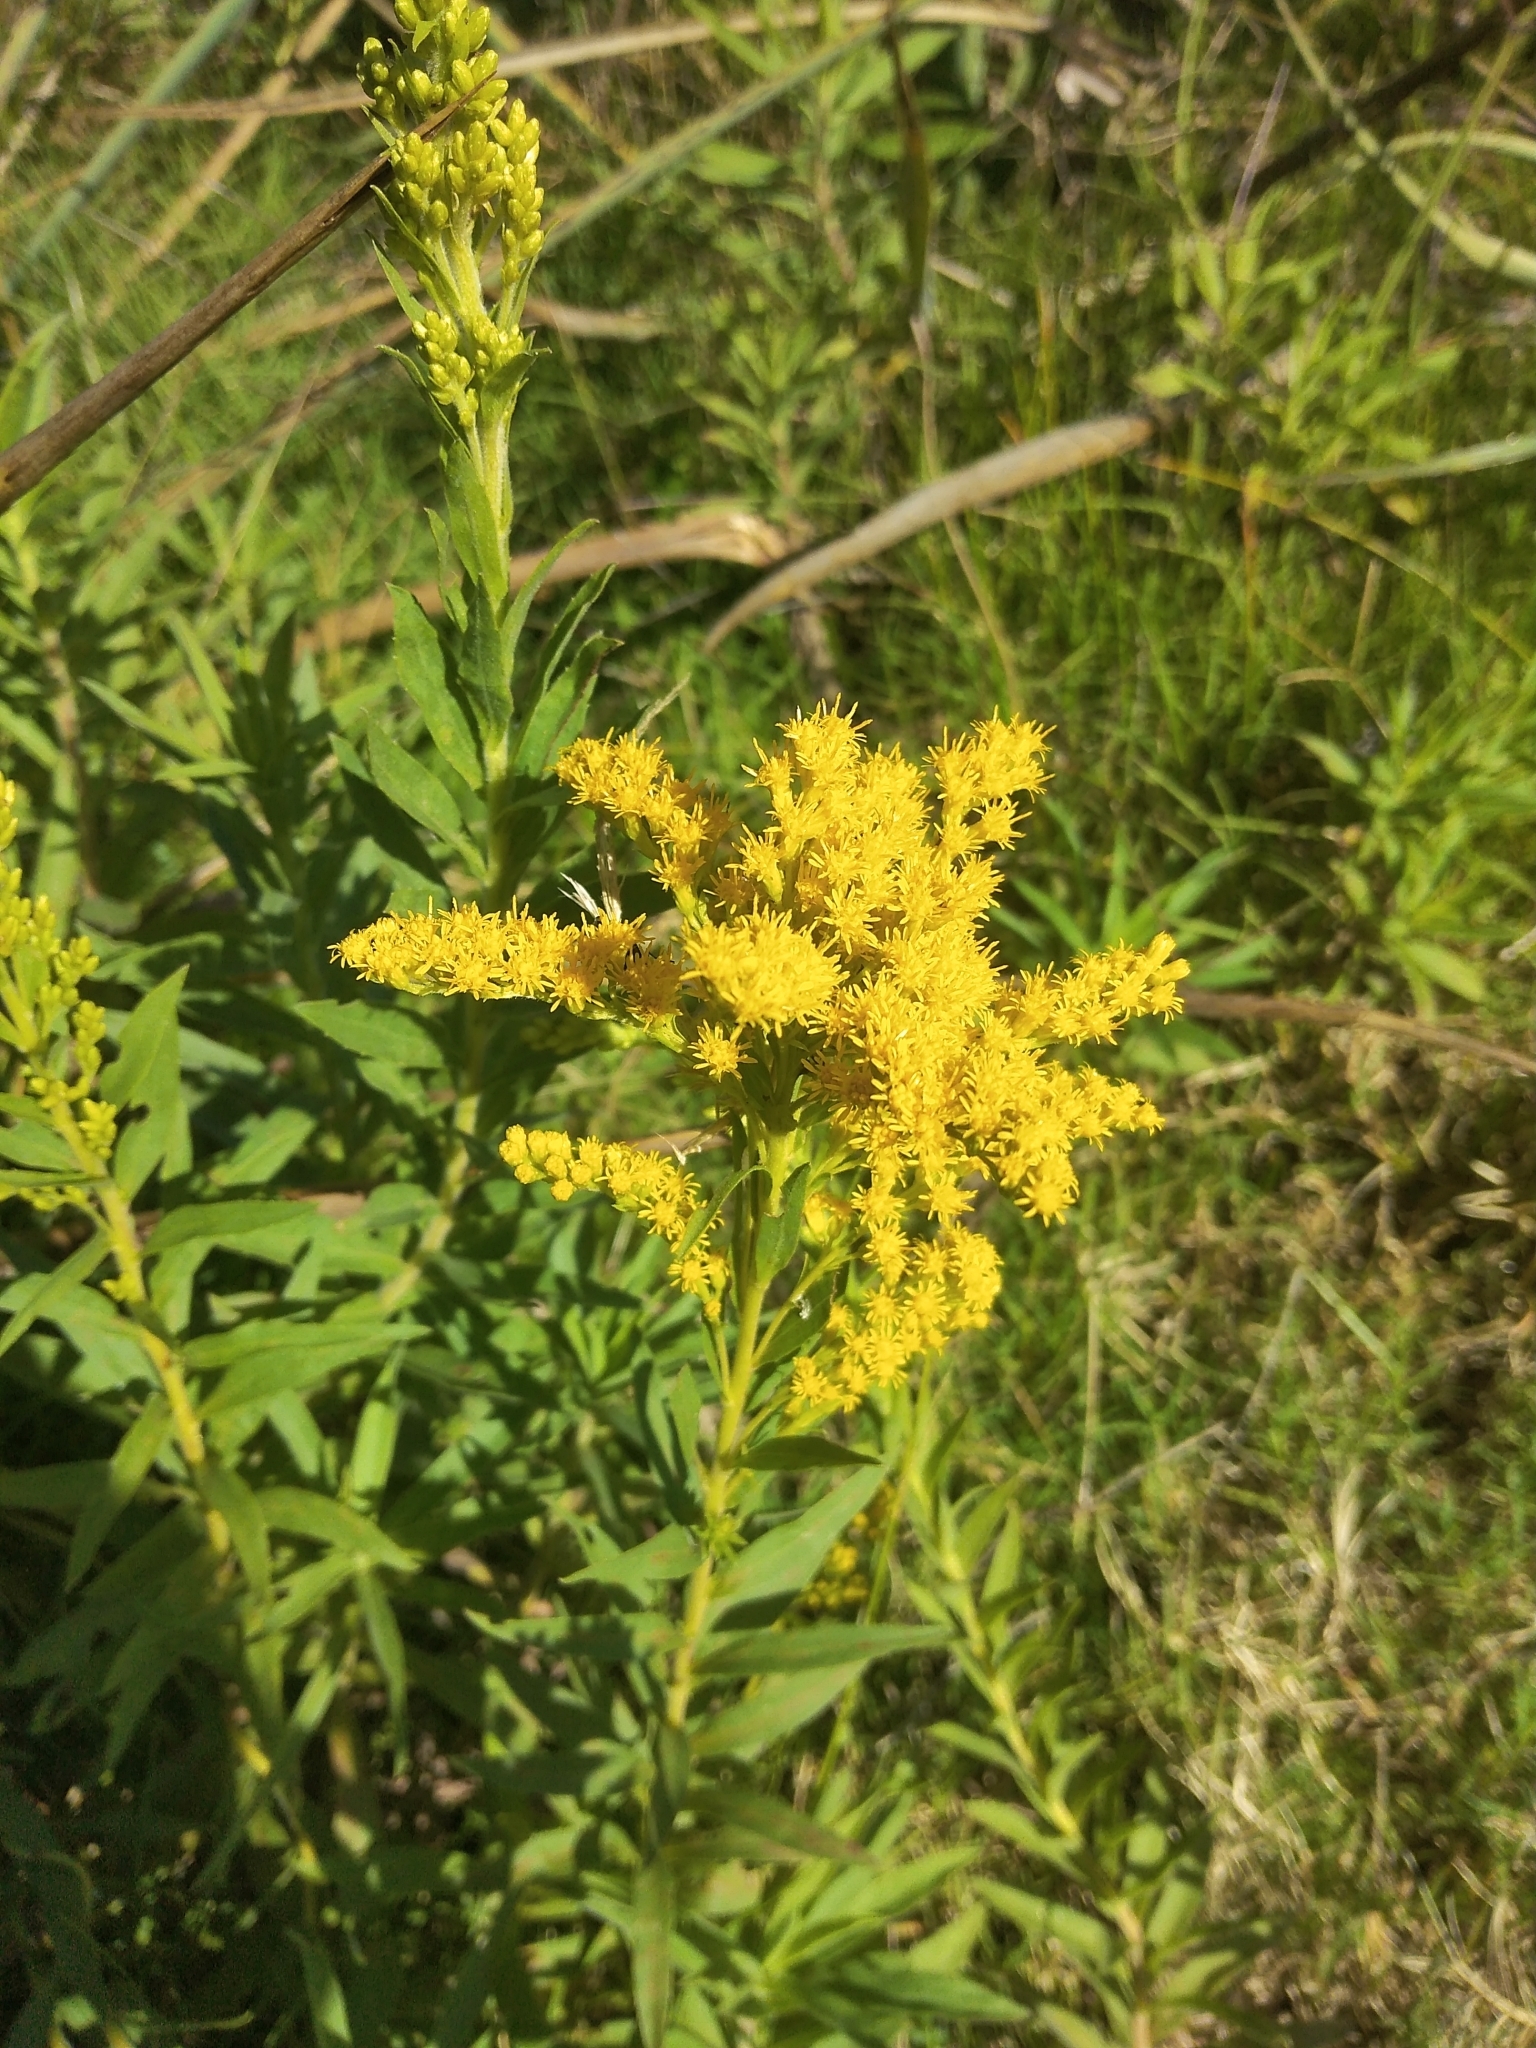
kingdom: Plantae
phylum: Tracheophyta
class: Magnoliopsida
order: Asterales
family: Asteraceae
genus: Solidago
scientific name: Solidago chilensis
